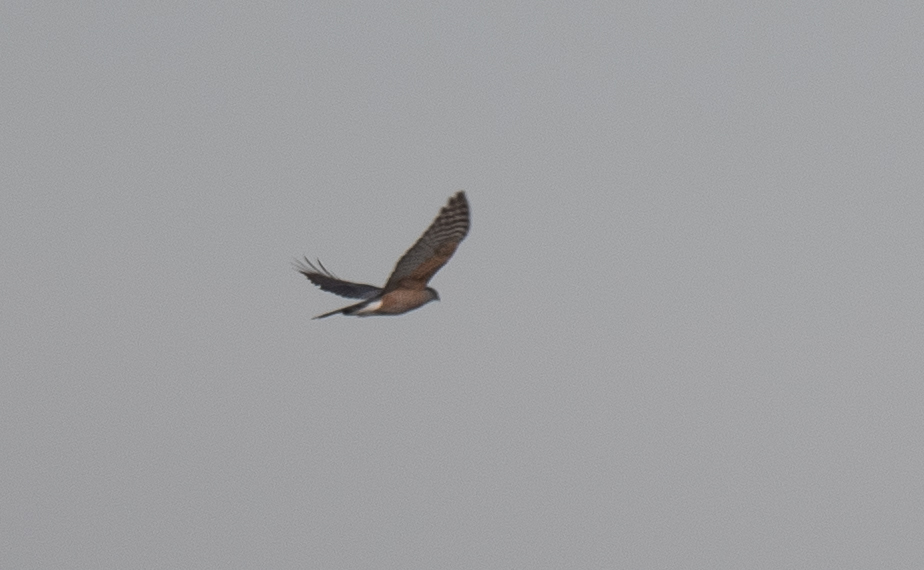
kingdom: Animalia
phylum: Chordata
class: Aves
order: Accipitriformes
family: Accipitridae
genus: Accipiter
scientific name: Accipiter cooperii
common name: Cooper's hawk
